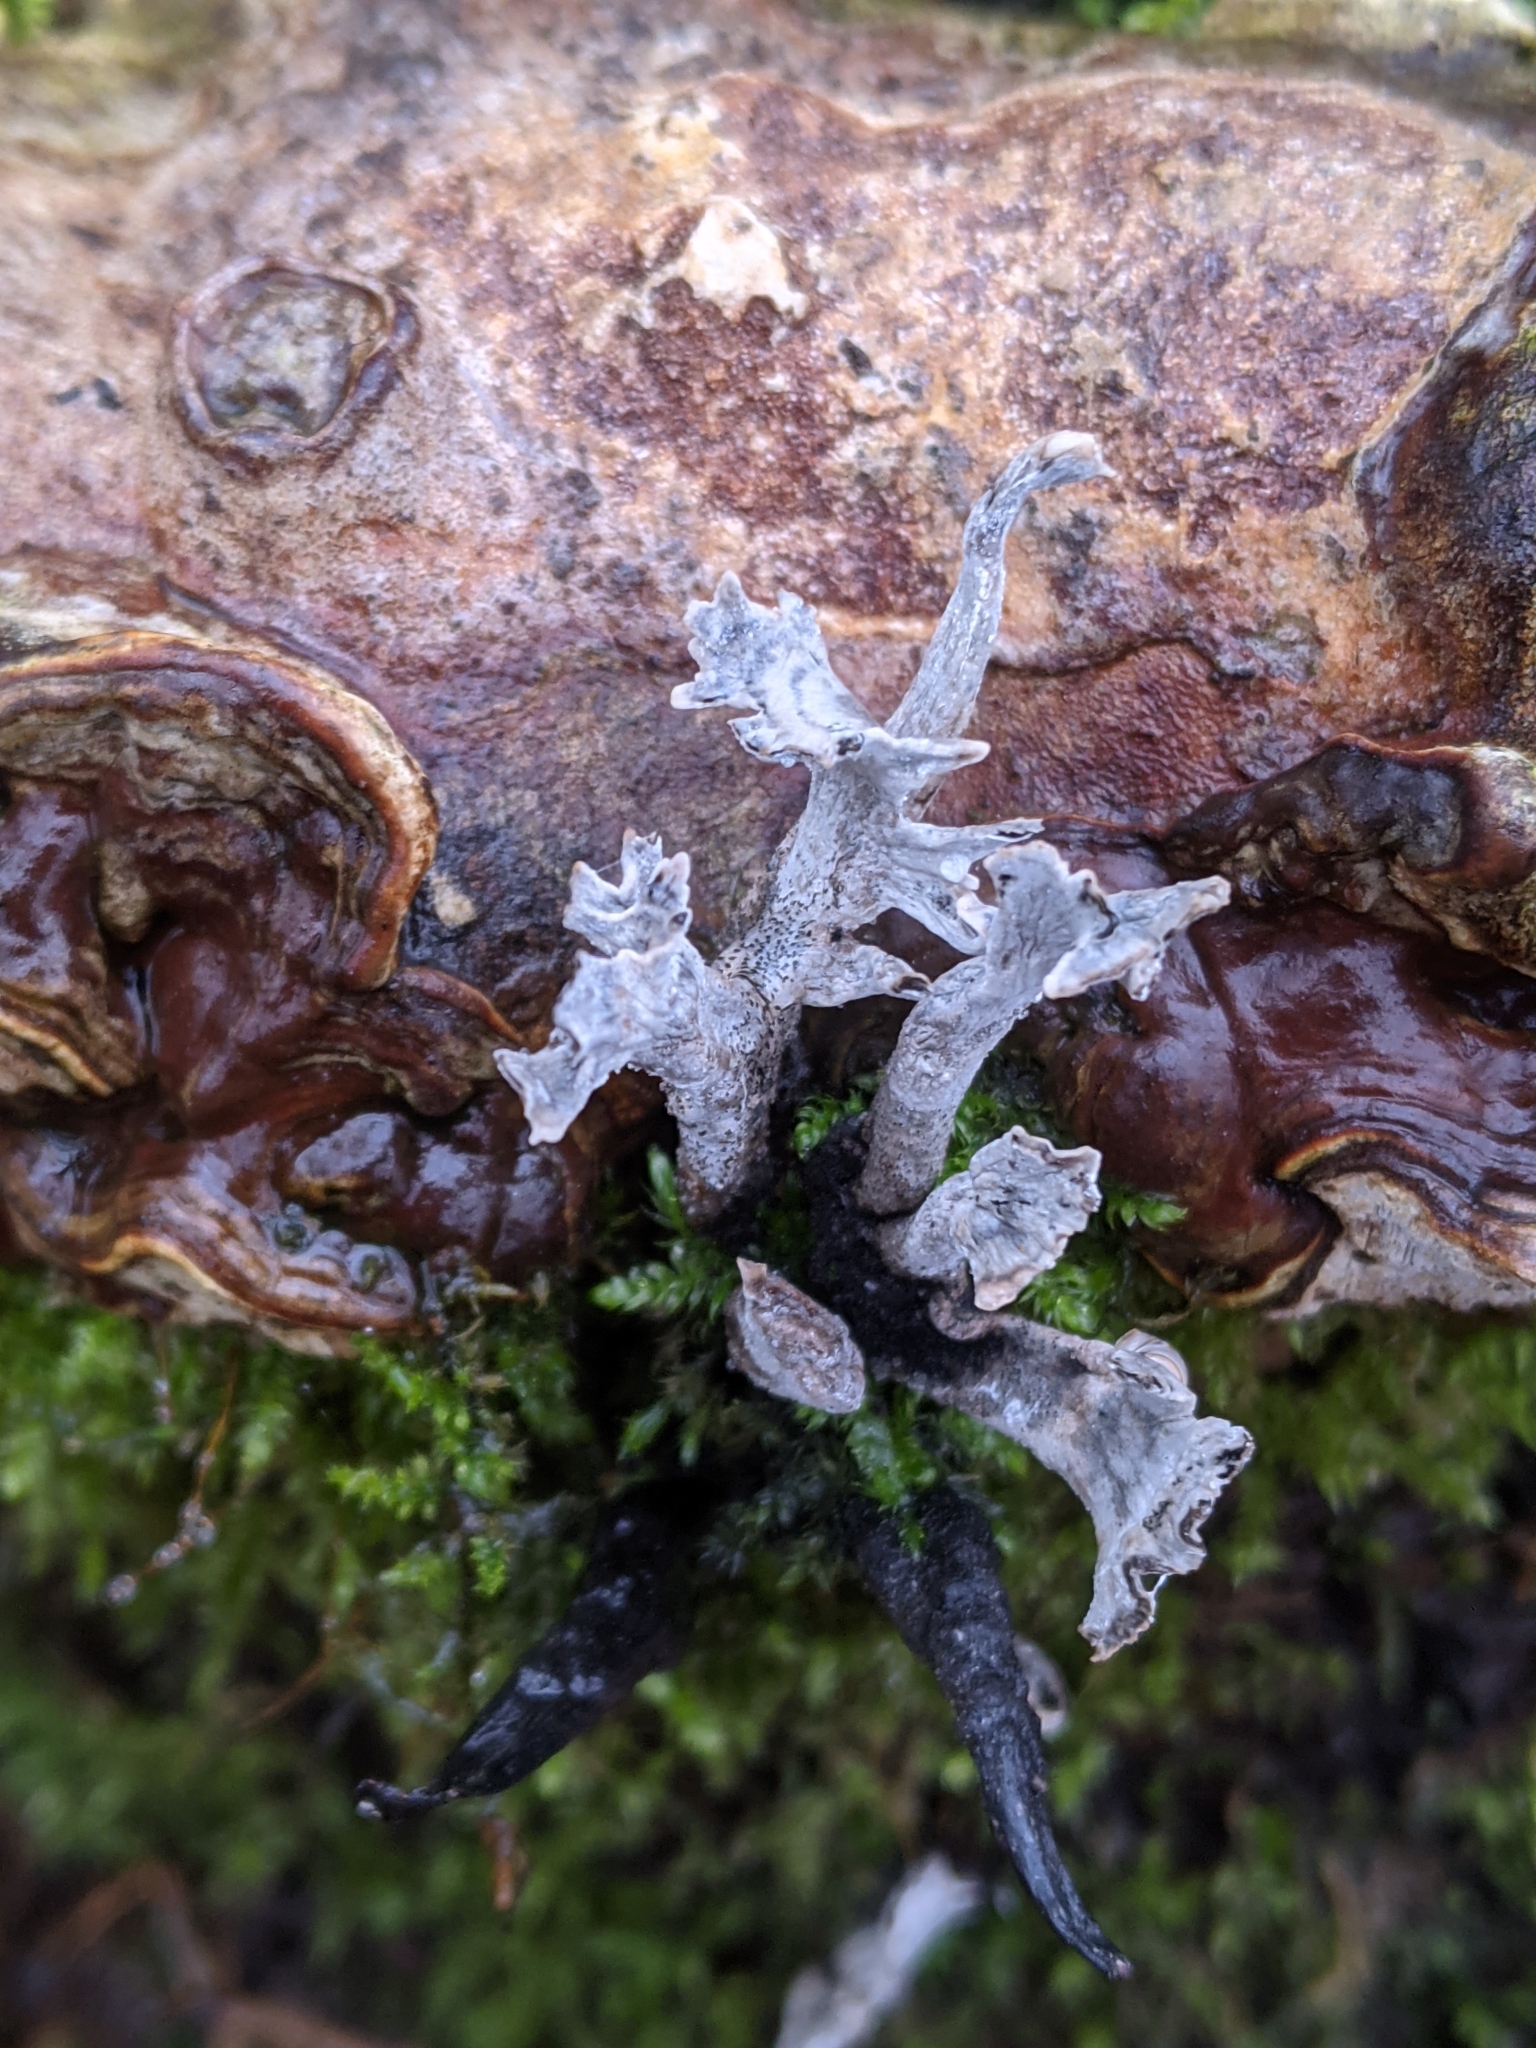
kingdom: Fungi
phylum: Ascomycota
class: Sordariomycetes
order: Xylariales
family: Xylariaceae
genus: Xylaria
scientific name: Xylaria hypoxylon
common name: Candle-snuff fungus
